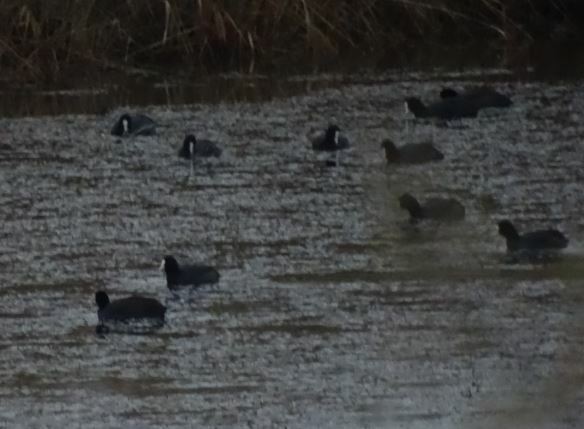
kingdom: Animalia
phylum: Chordata
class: Aves
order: Gruiformes
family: Rallidae
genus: Fulica
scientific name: Fulica atra
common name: Eurasian coot
